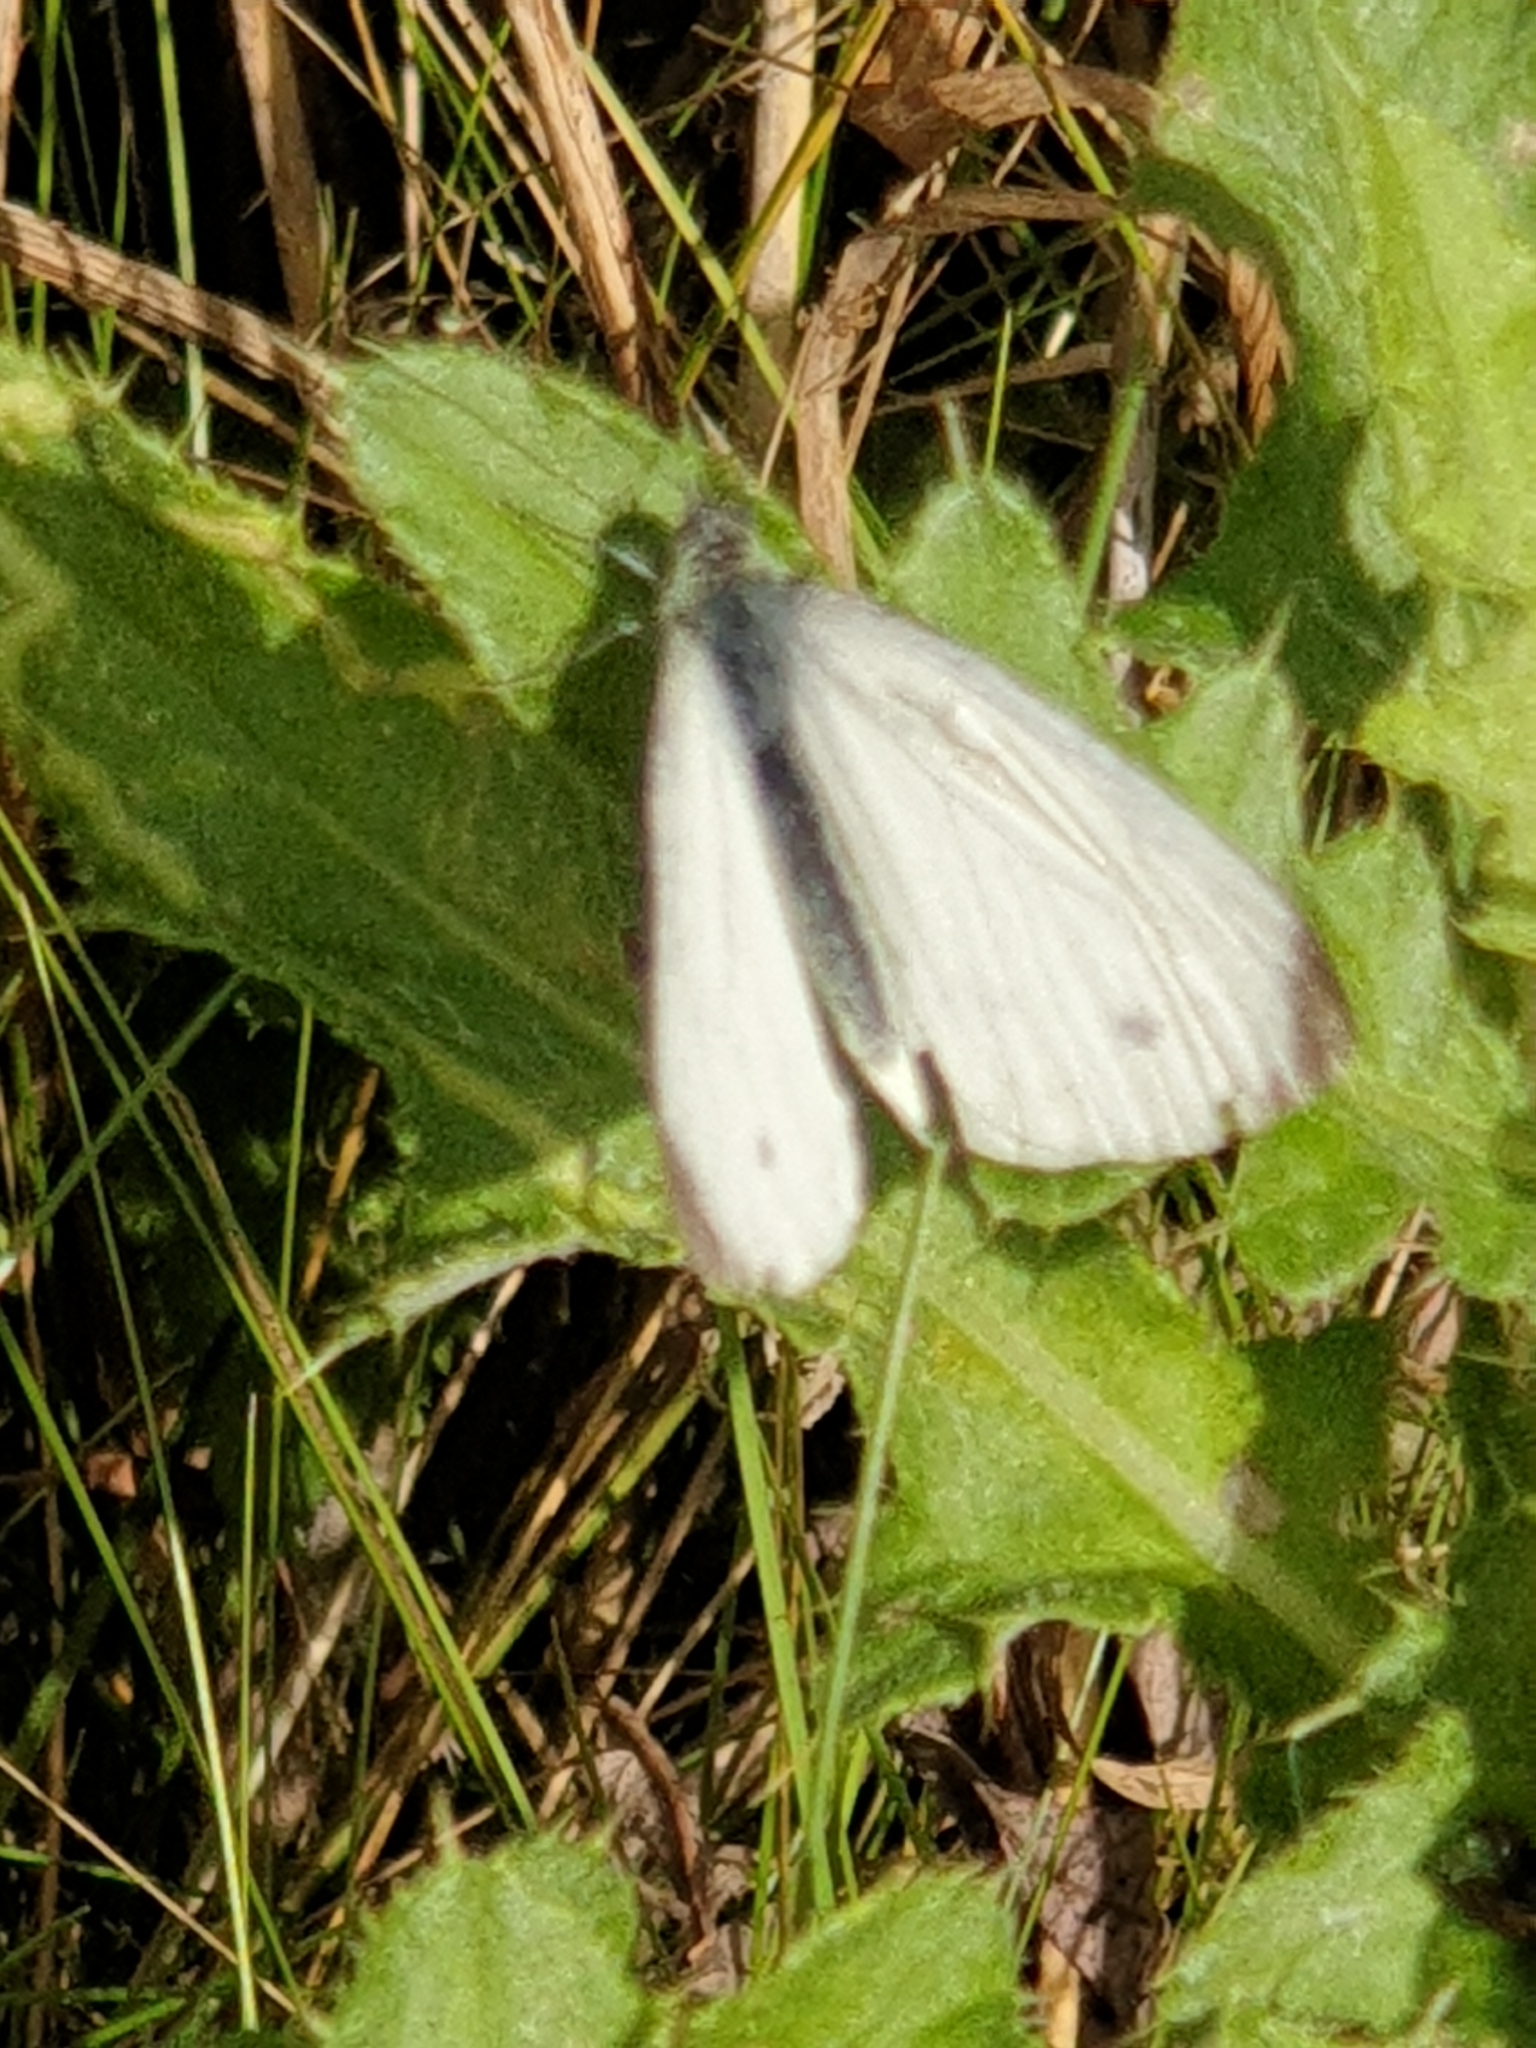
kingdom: Animalia
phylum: Arthropoda
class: Insecta
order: Lepidoptera
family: Pieridae
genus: Pieris
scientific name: Pieris napi
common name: Green-veined white
